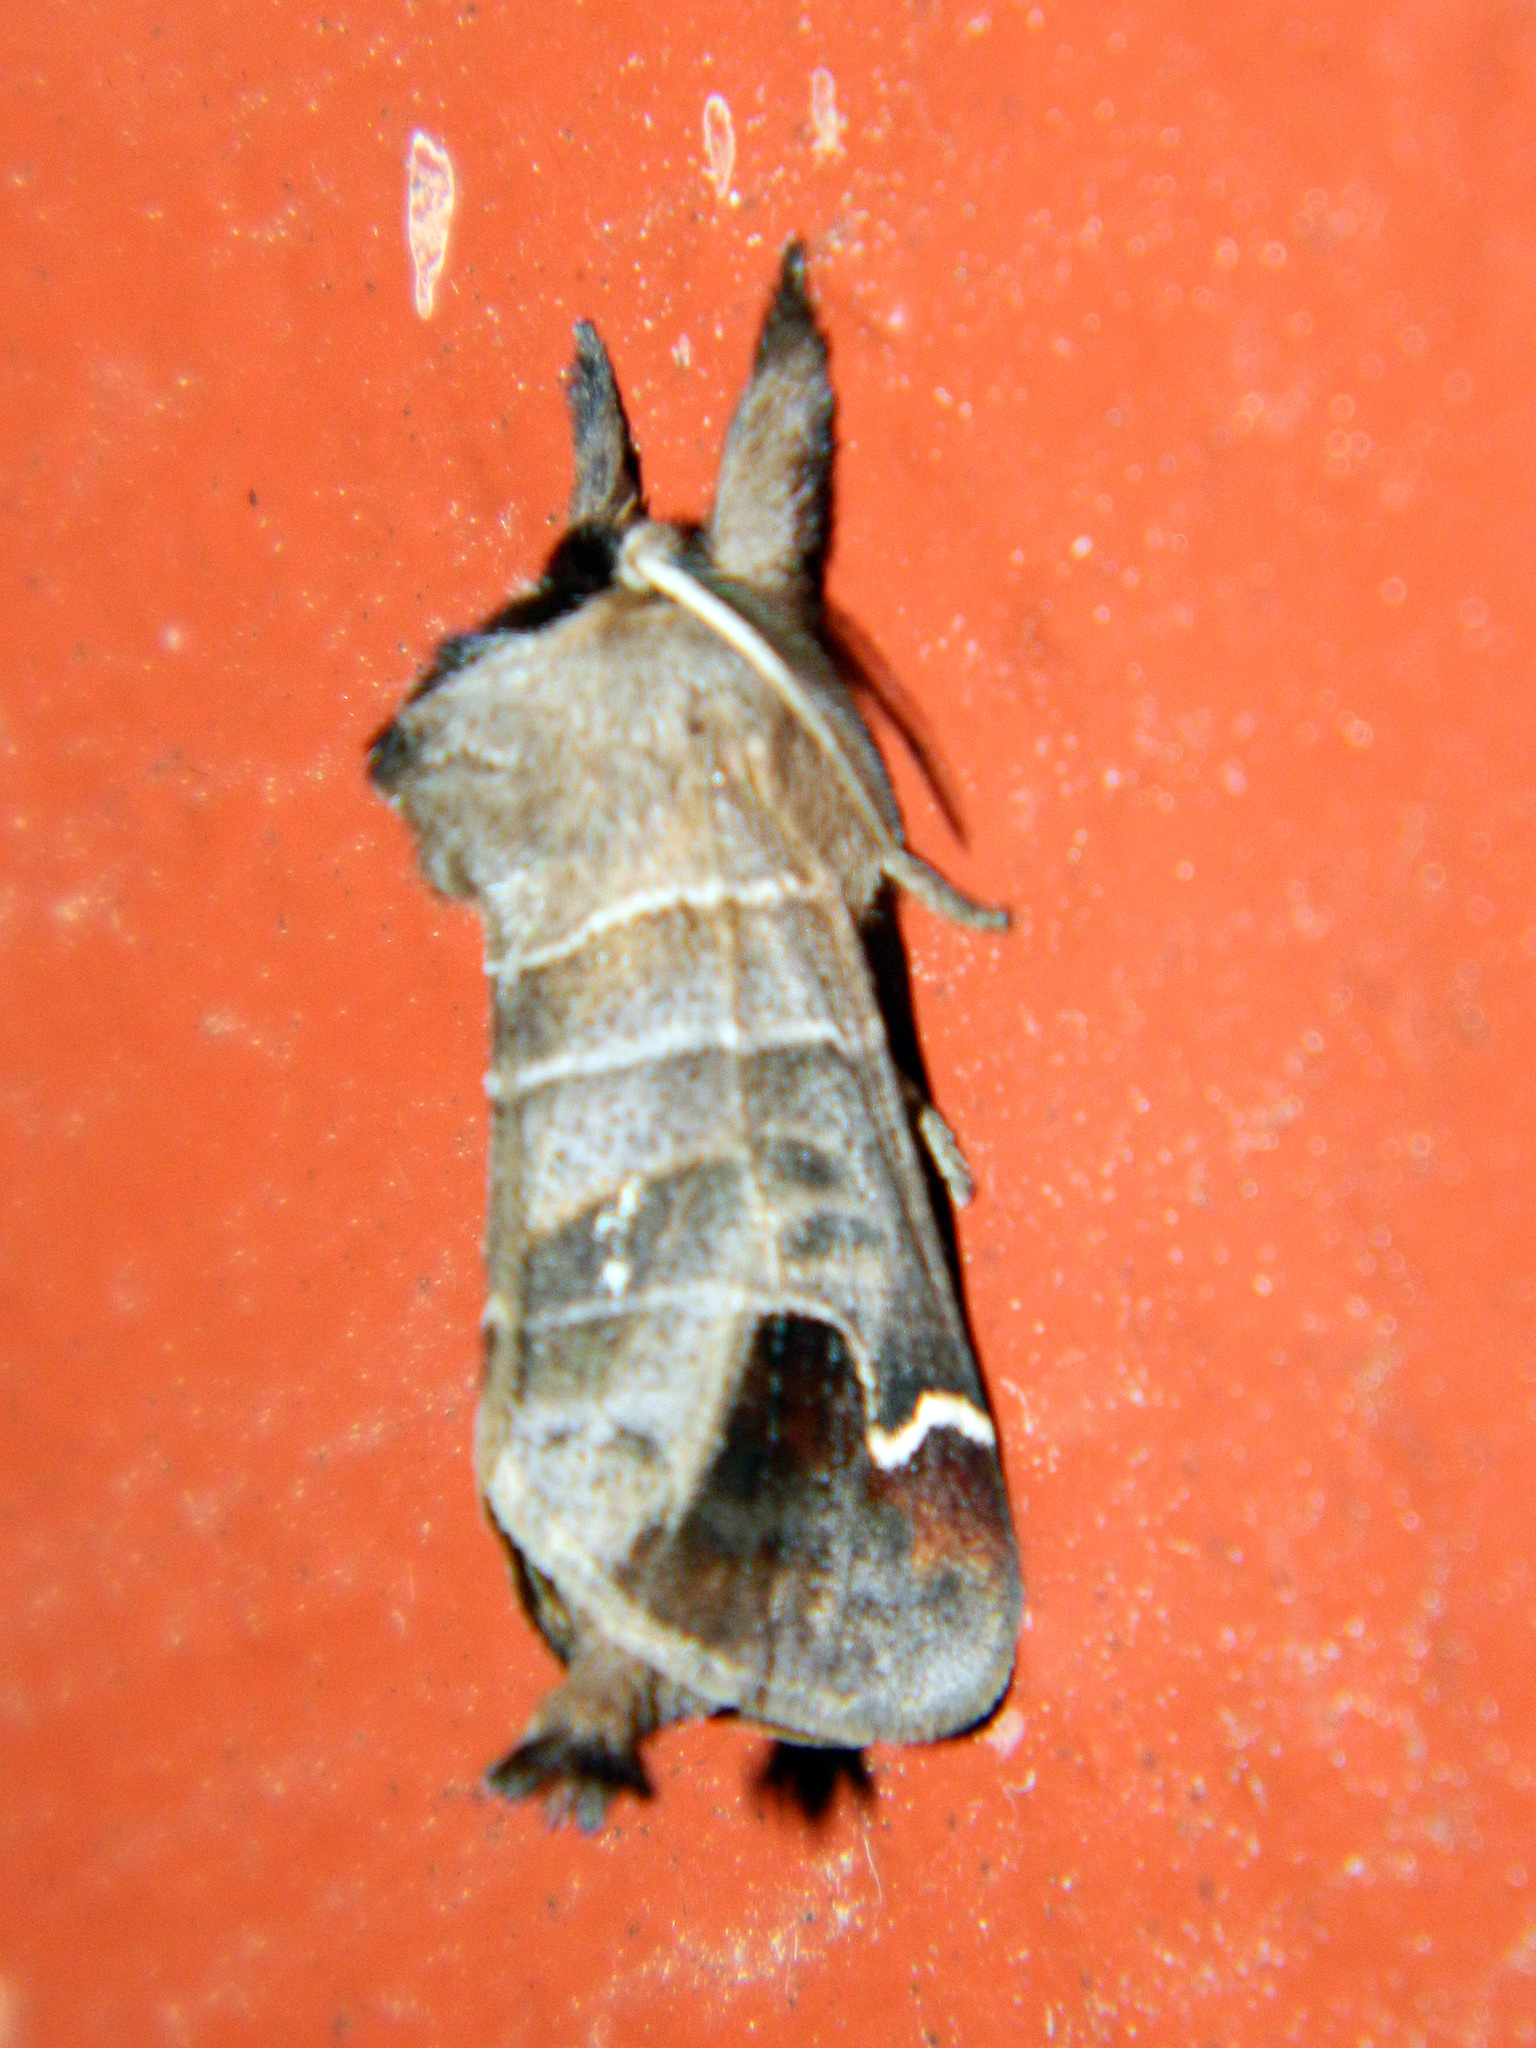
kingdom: Animalia
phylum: Arthropoda
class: Insecta
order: Lepidoptera
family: Notodontidae
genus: Clostera
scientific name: Clostera albosigma
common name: Sigmoid prominent
